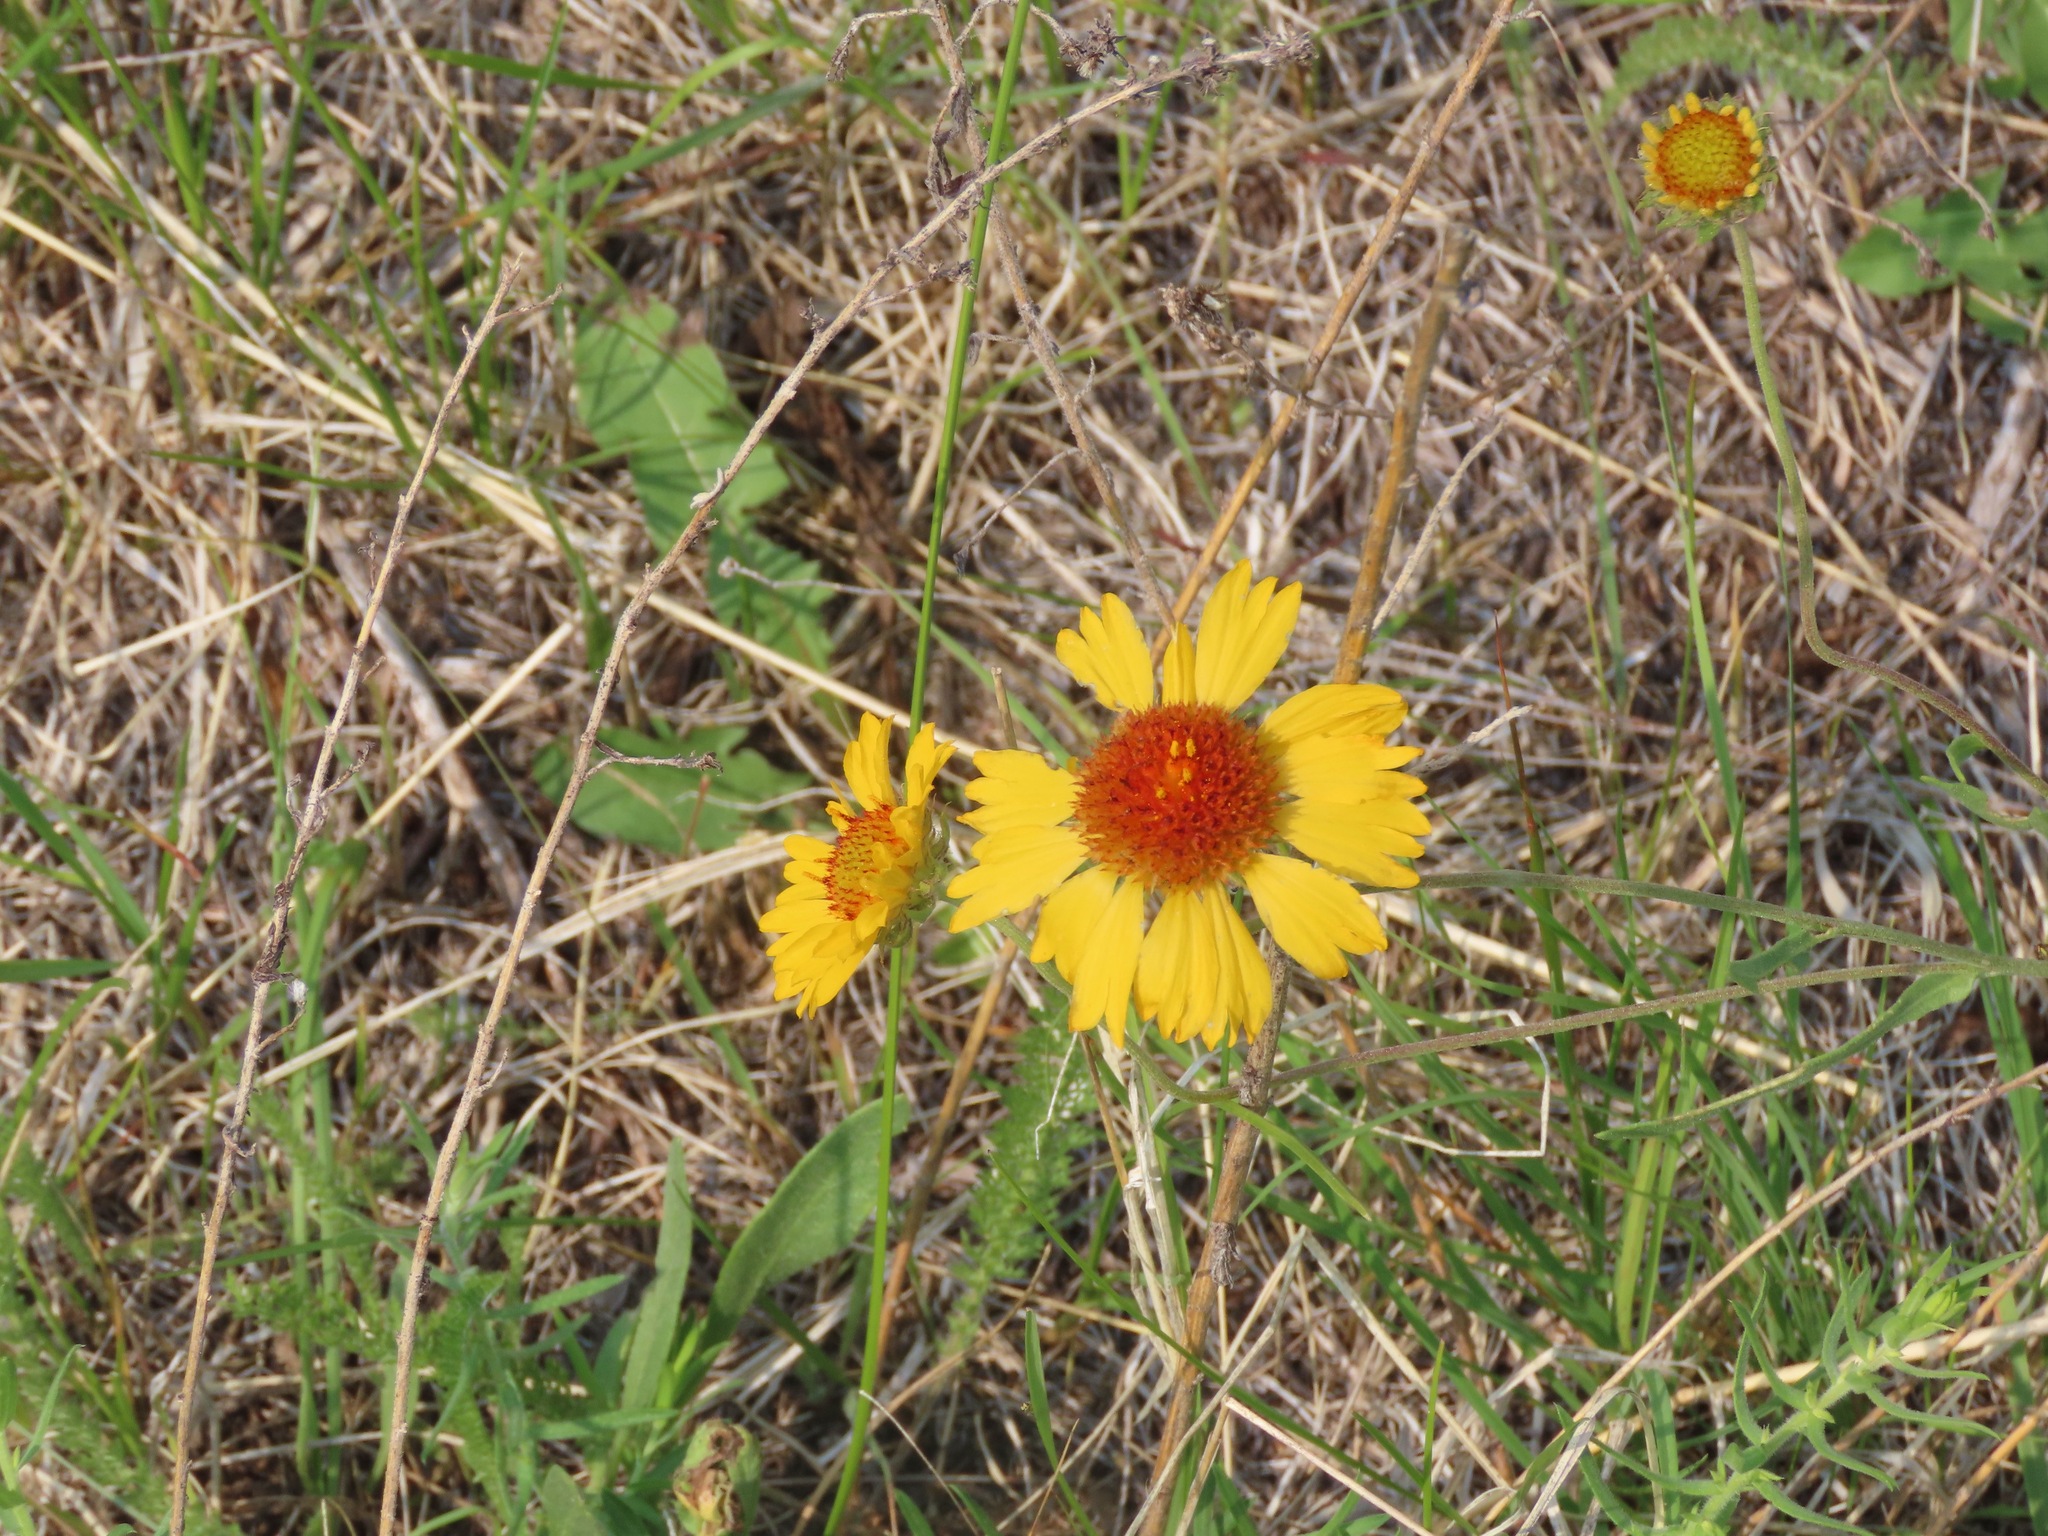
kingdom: Plantae
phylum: Tracheophyta
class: Magnoliopsida
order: Asterales
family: Asteraceae
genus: Gaillardia
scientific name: Gaillardia aristata
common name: Blanket-flower
